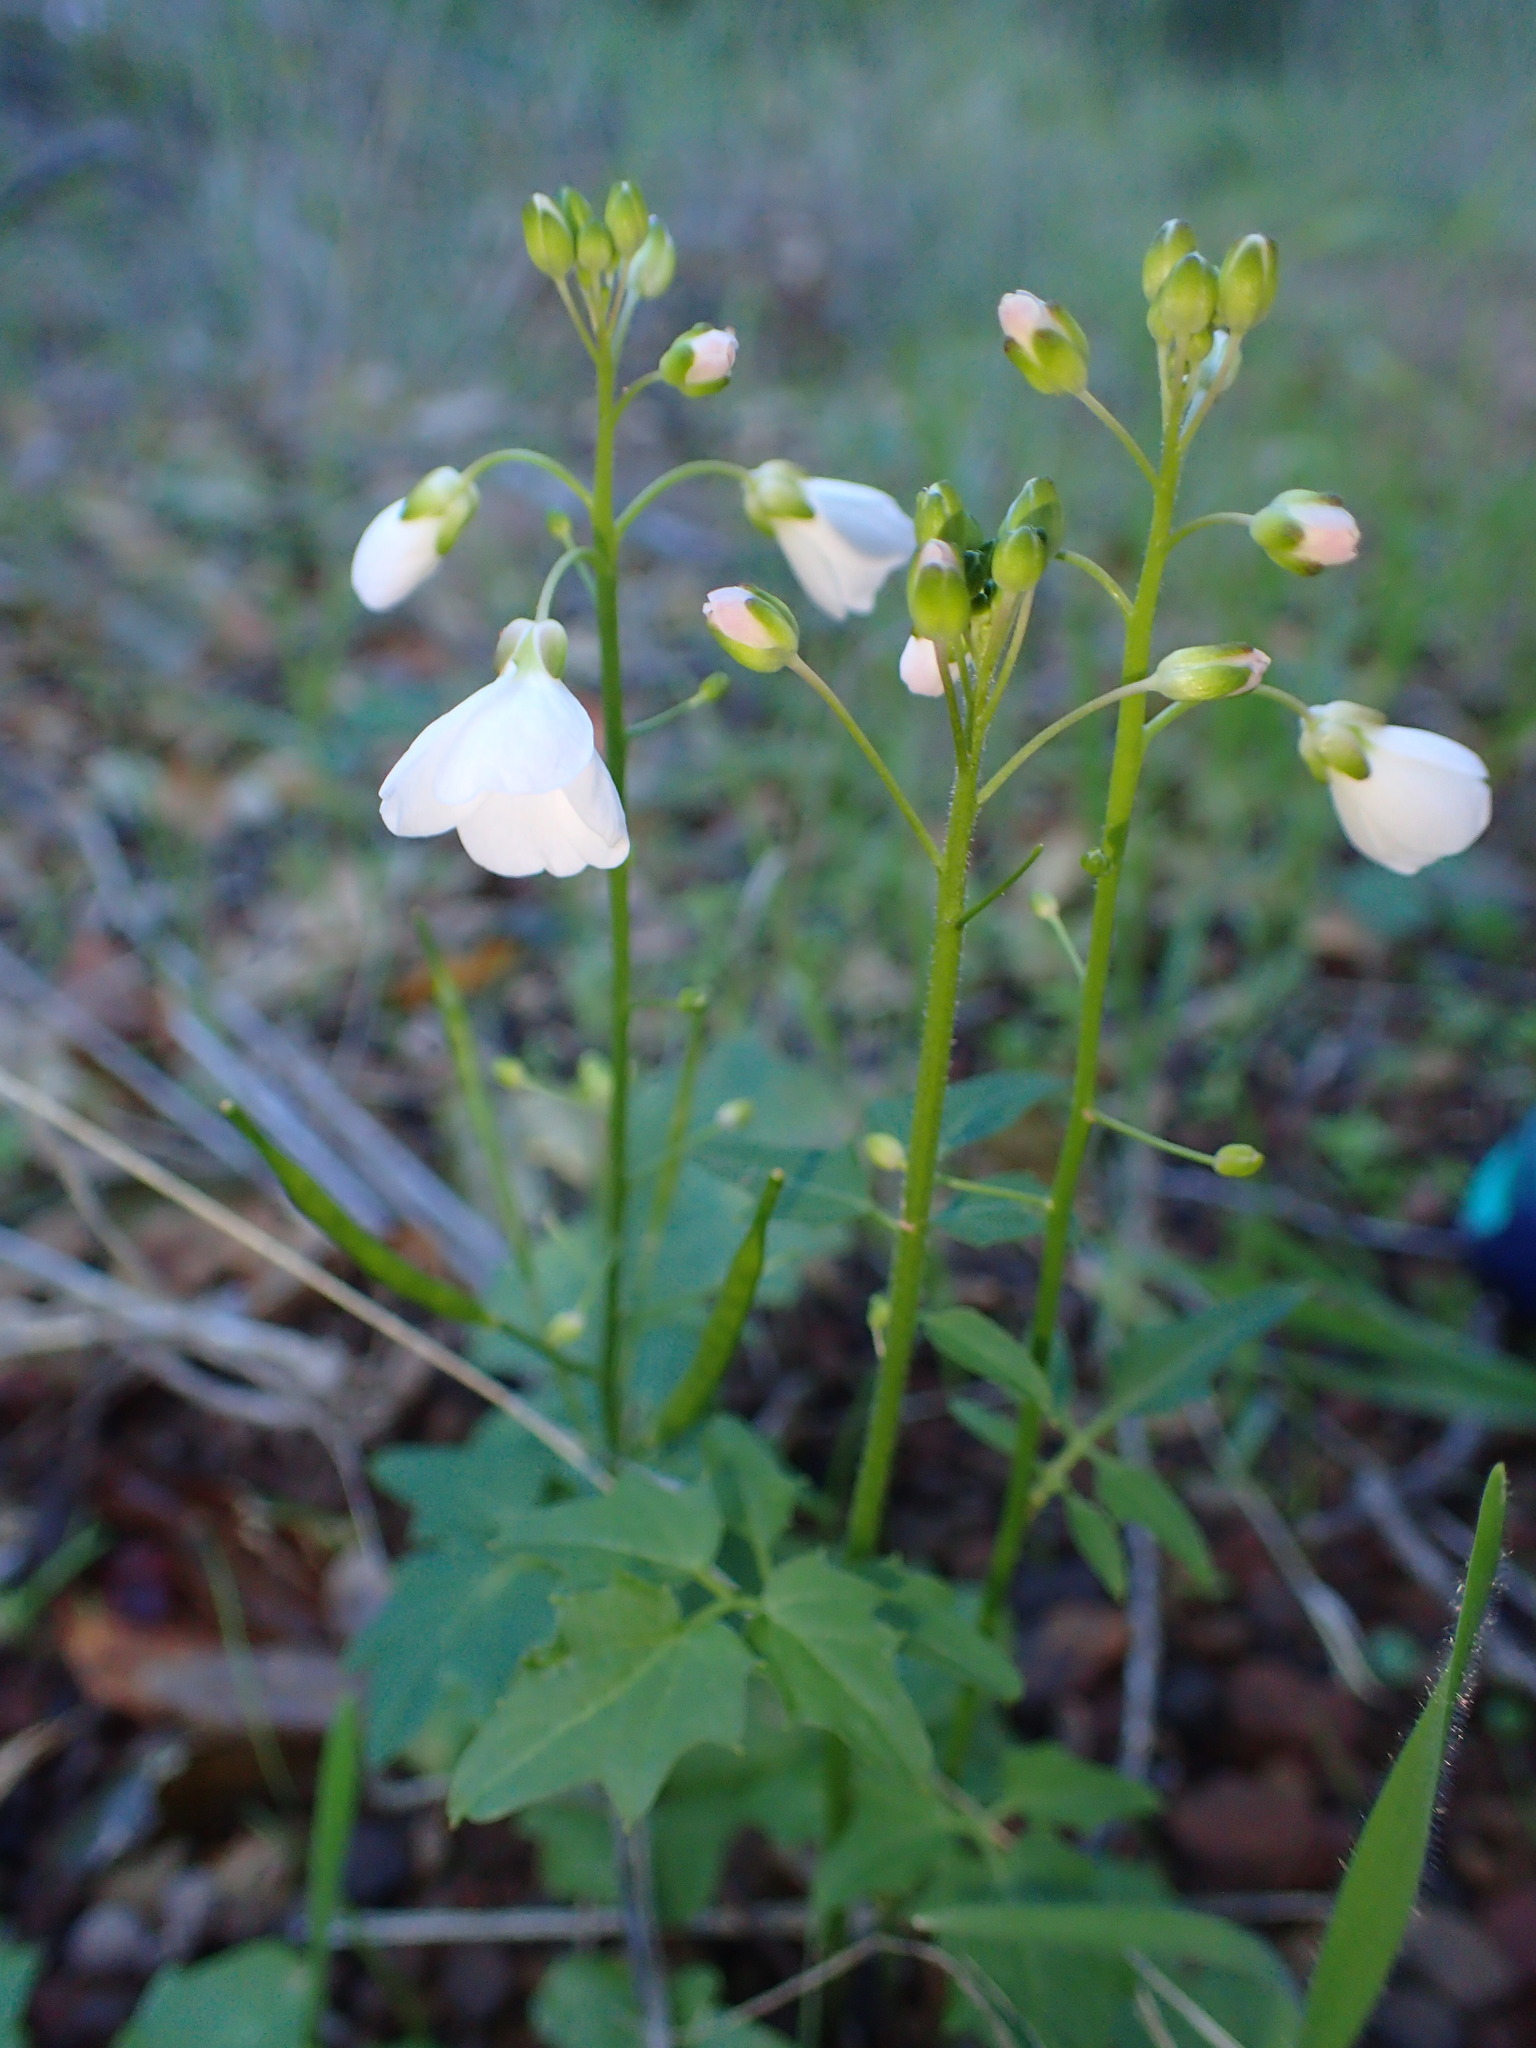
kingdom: Plantae
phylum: Tracheophyta
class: Magnoliopsida
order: Brassicales
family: Brassicaceae
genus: Cardamine
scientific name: Cardamine californica
